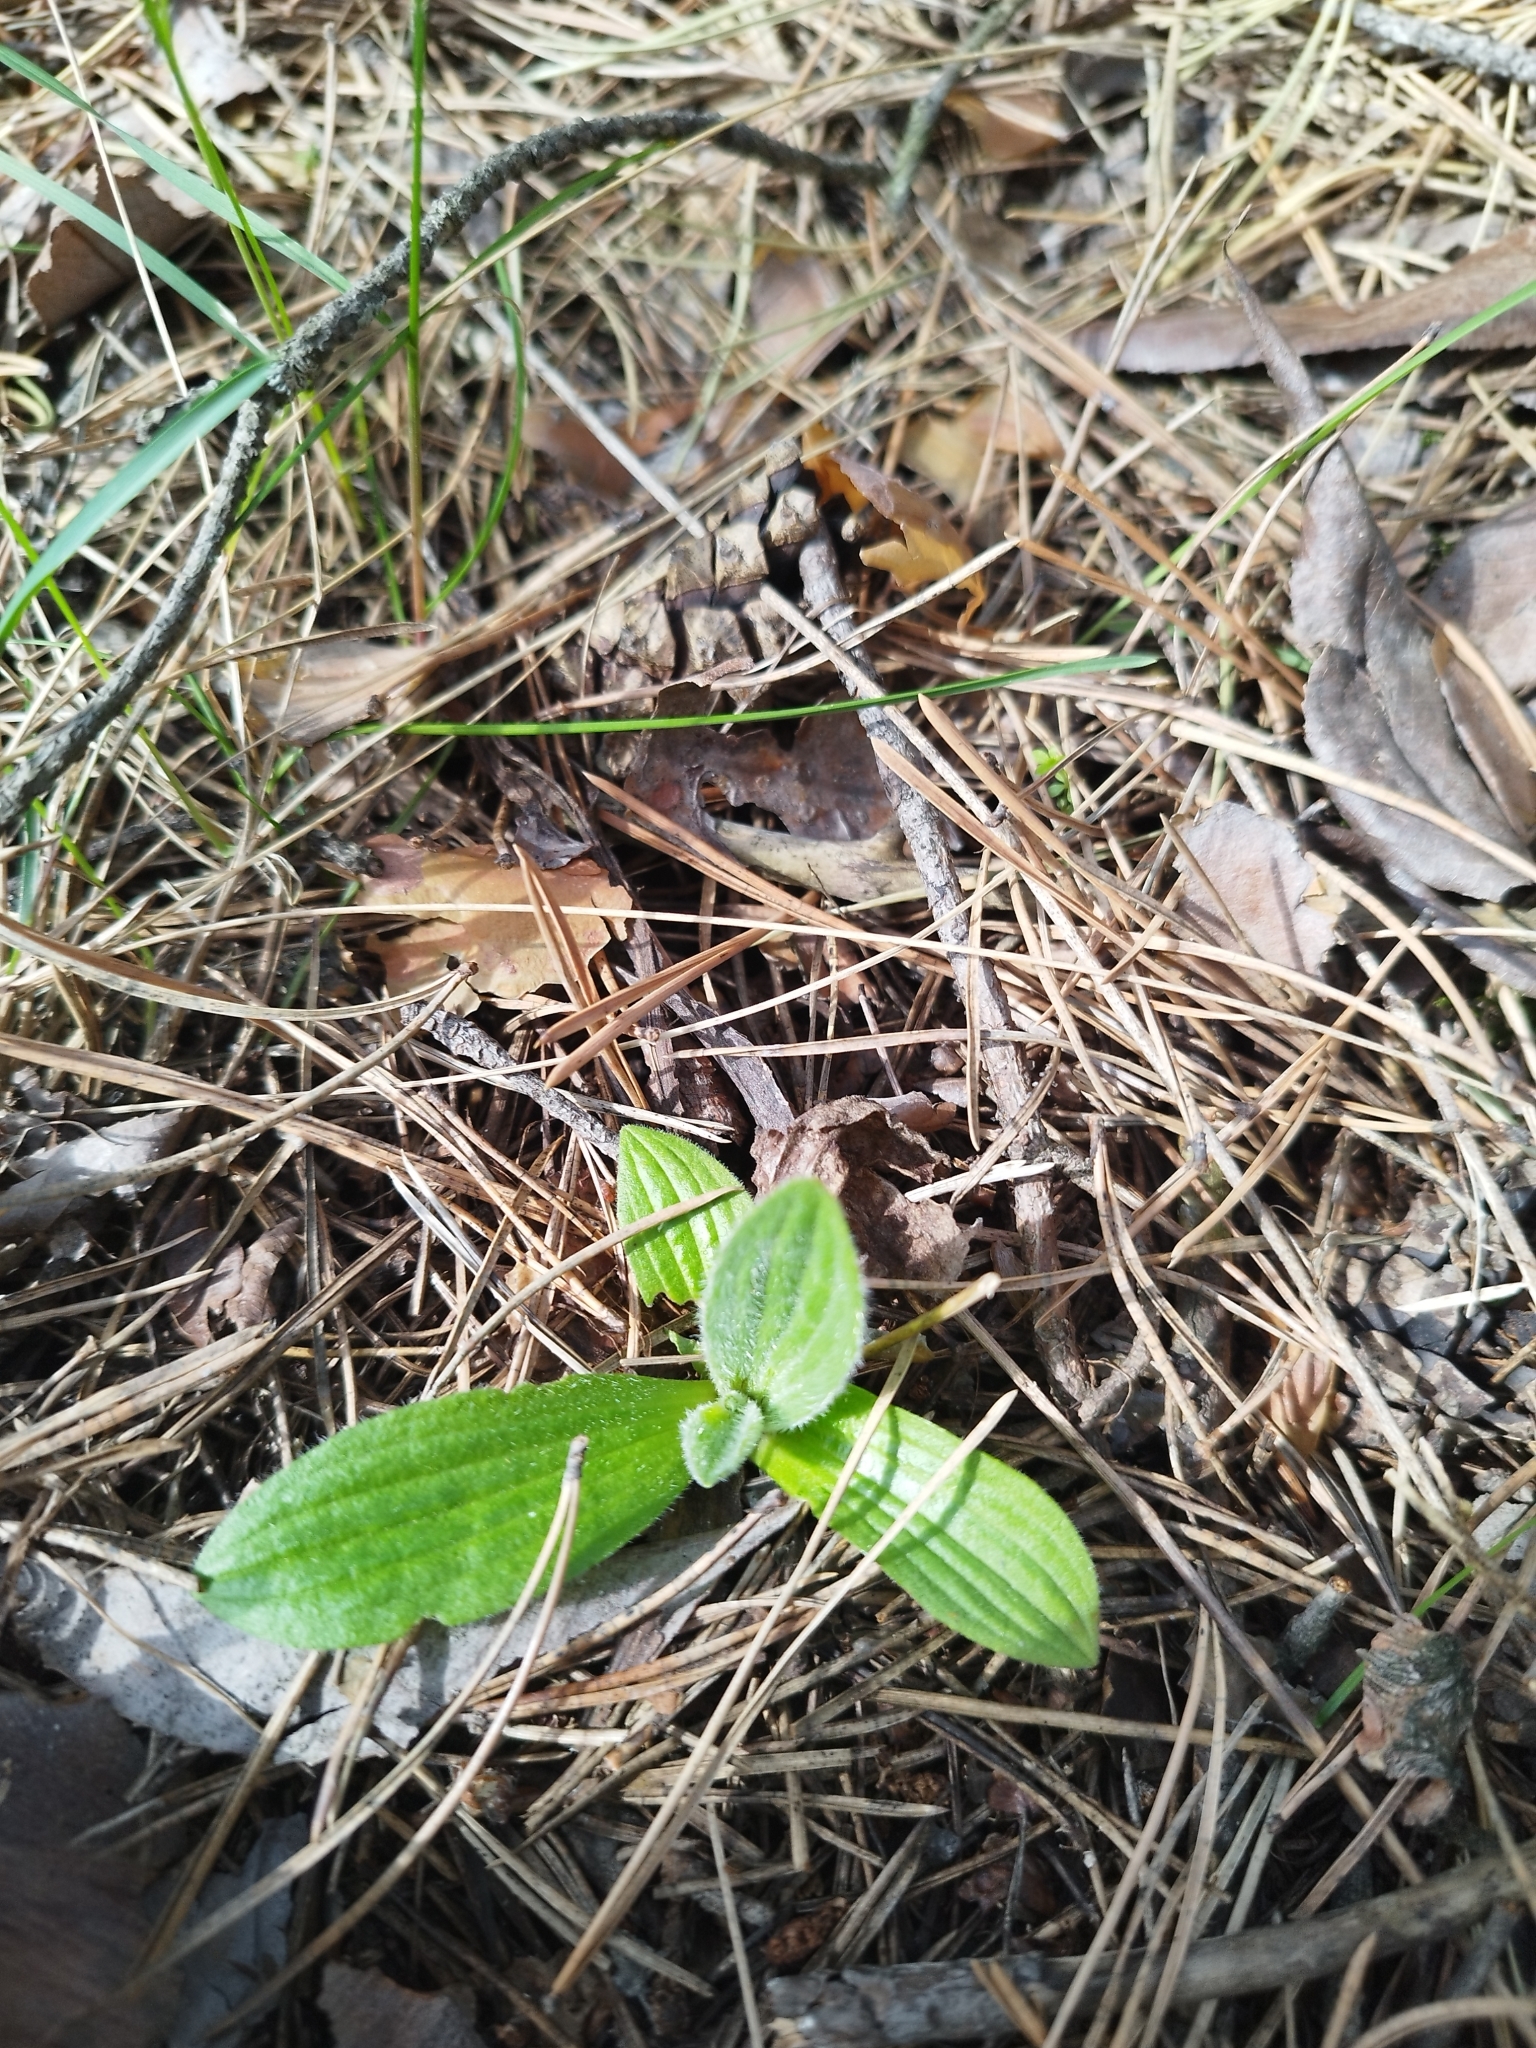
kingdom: Plantae
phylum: Tracheophyta
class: Magnoliopsida
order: Lamiales
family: Plantaginaceae
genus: Plantago
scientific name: Plantago urvillei
